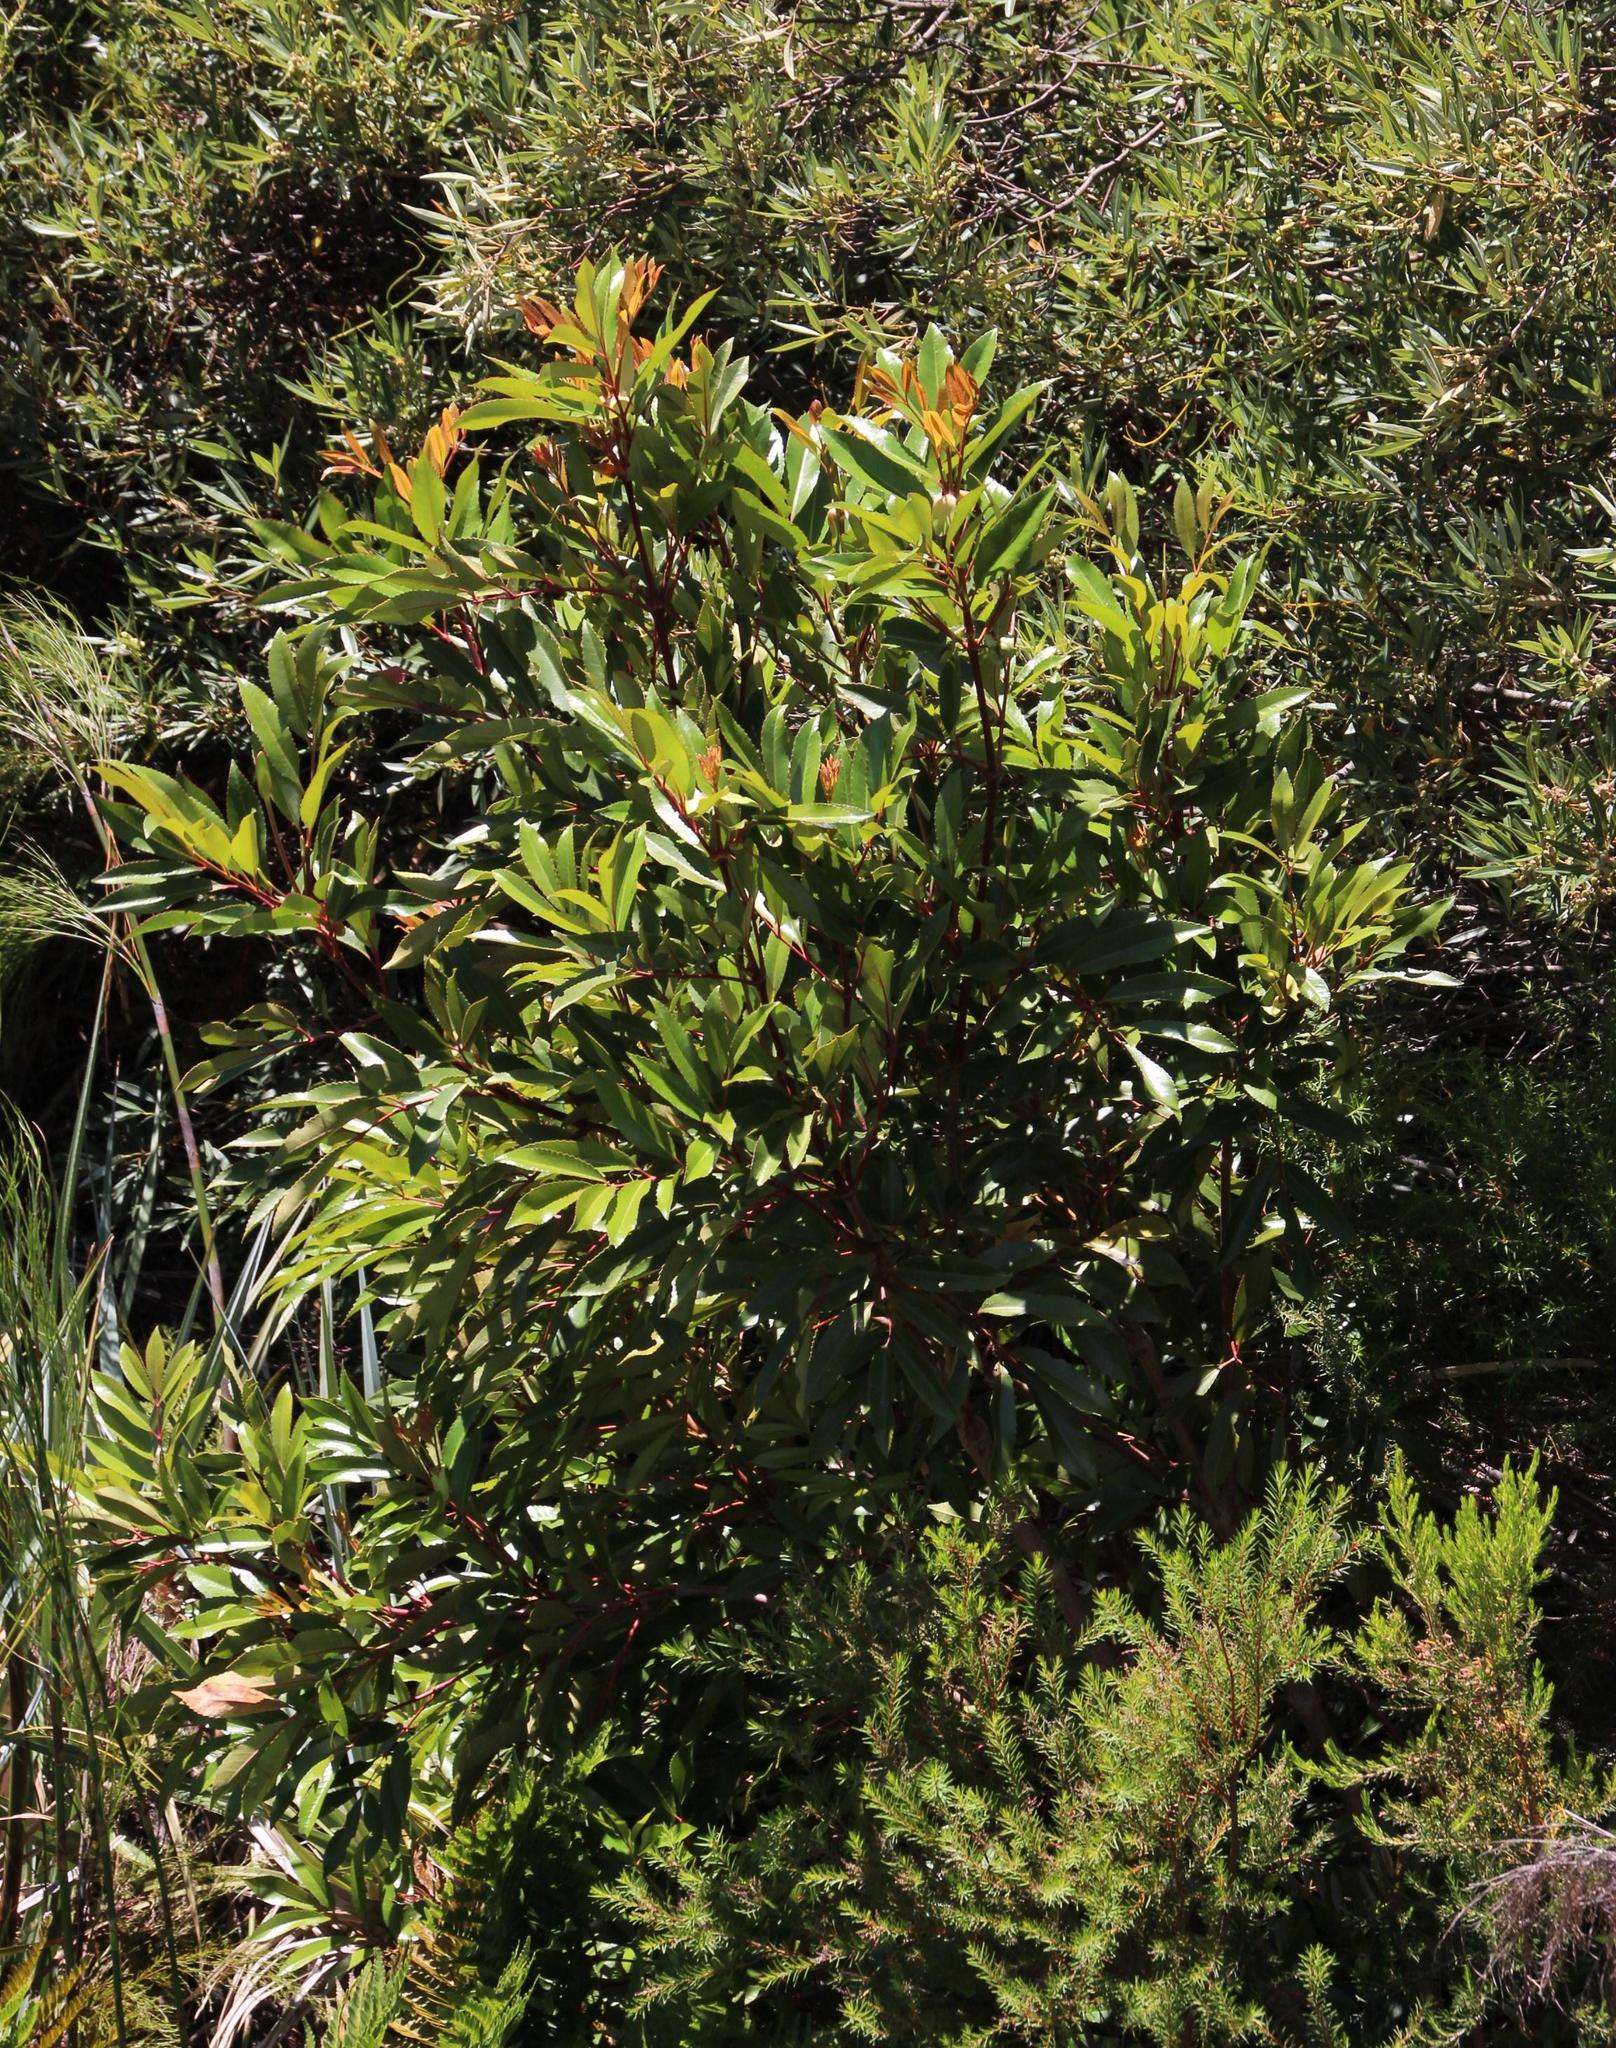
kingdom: Plantae
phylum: Tracheophyta
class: Magnoliopsida
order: Oxalidales
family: Cunoniaceae
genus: Cunonia
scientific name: Cunonia capensis
